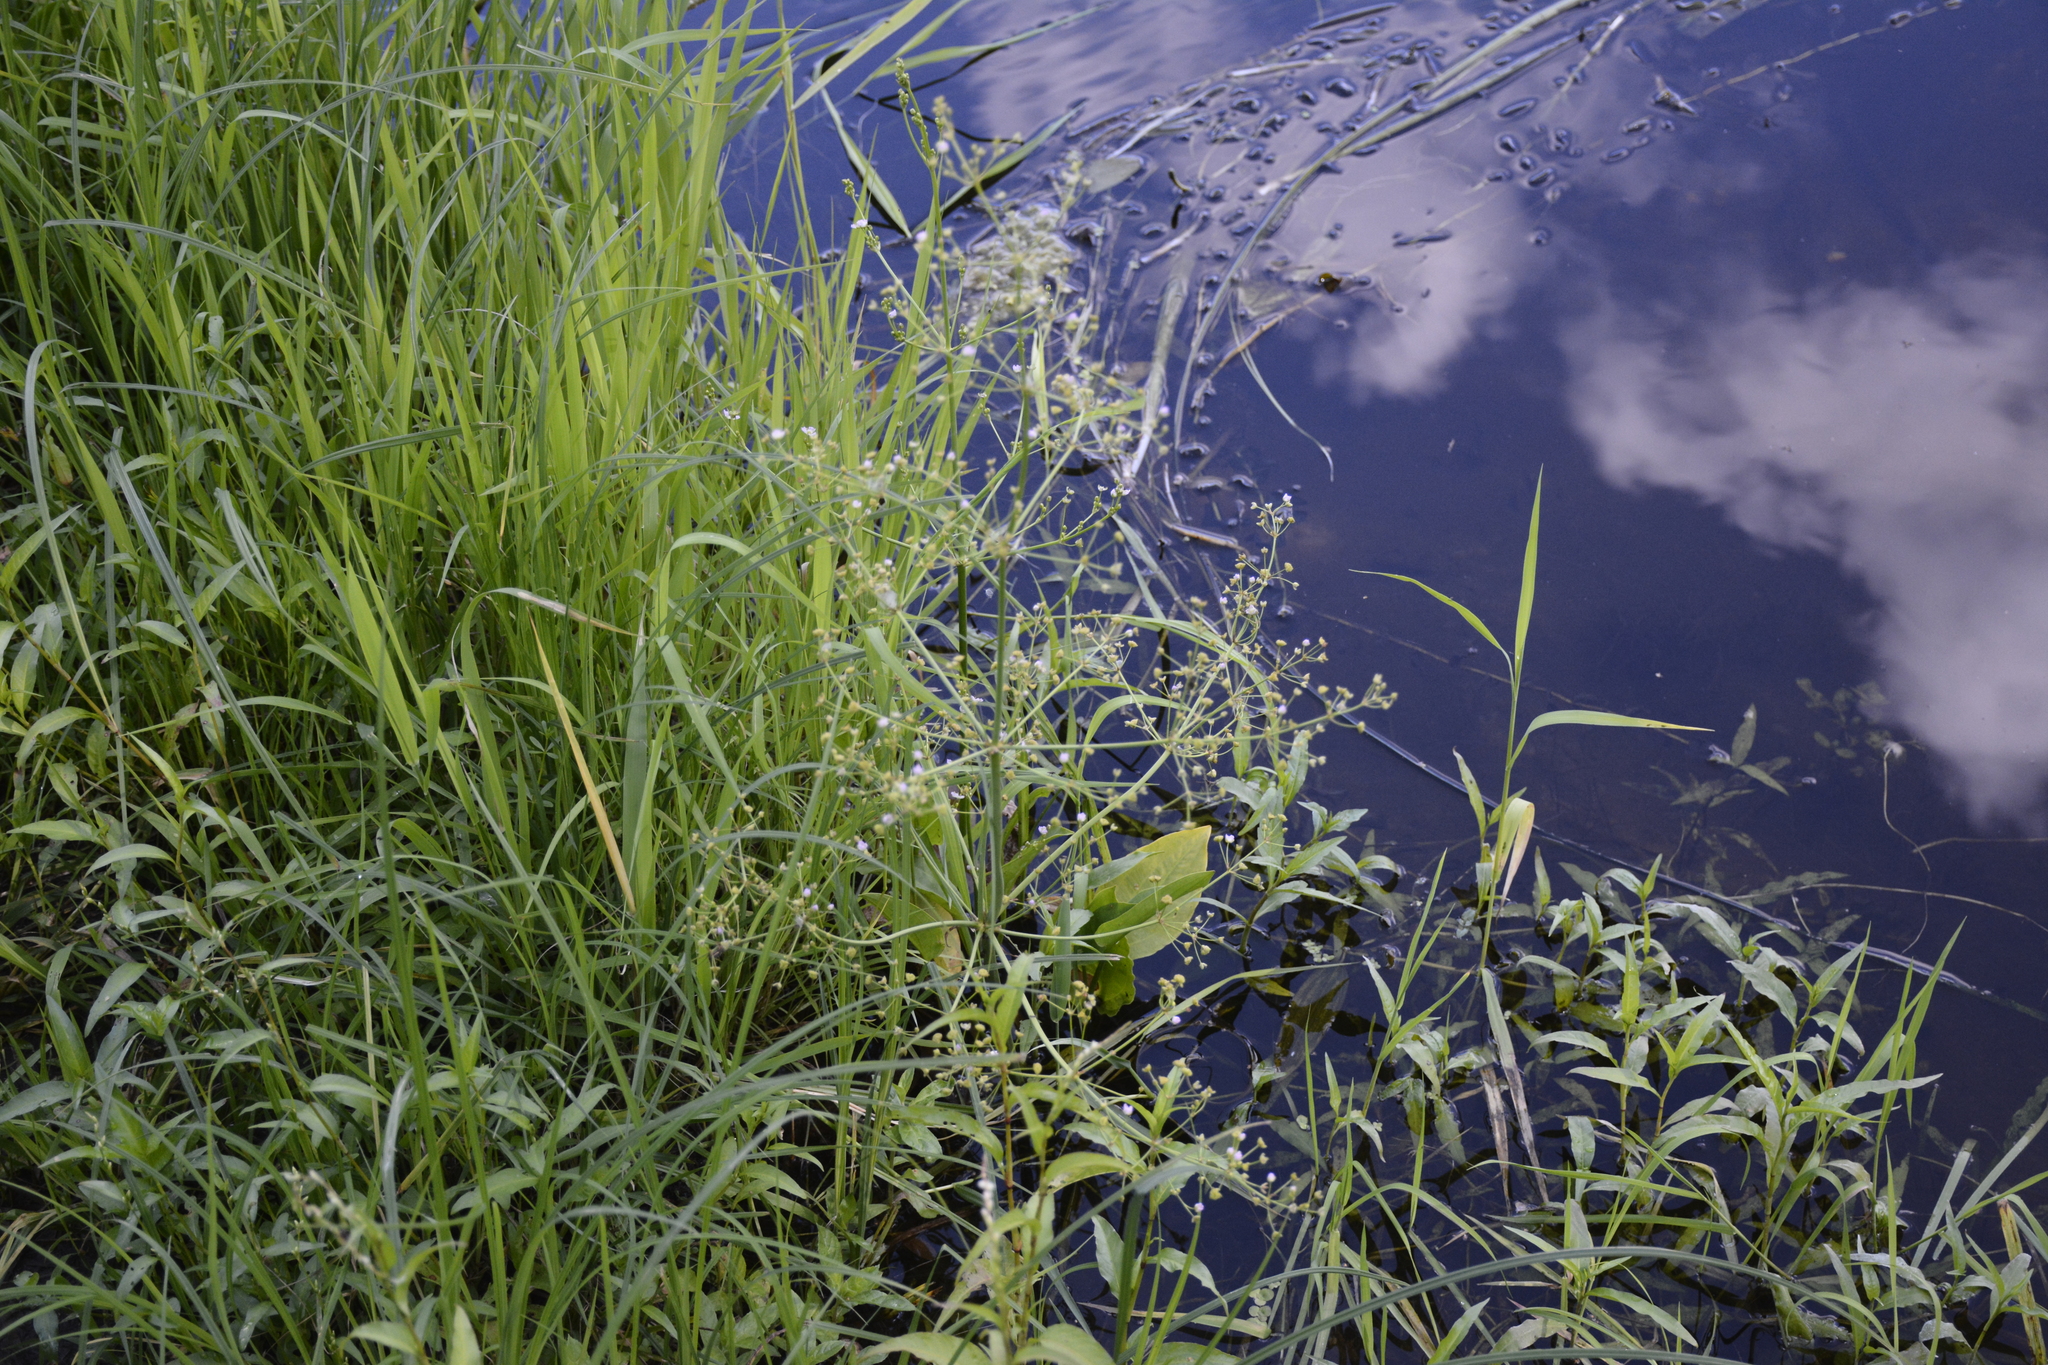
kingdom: Plantae
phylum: Tracheophyta
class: Liliopsida
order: Alismatales
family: Alismataceae
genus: Alisma
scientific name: Alisma plantago-aquatica
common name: Water-plantain
